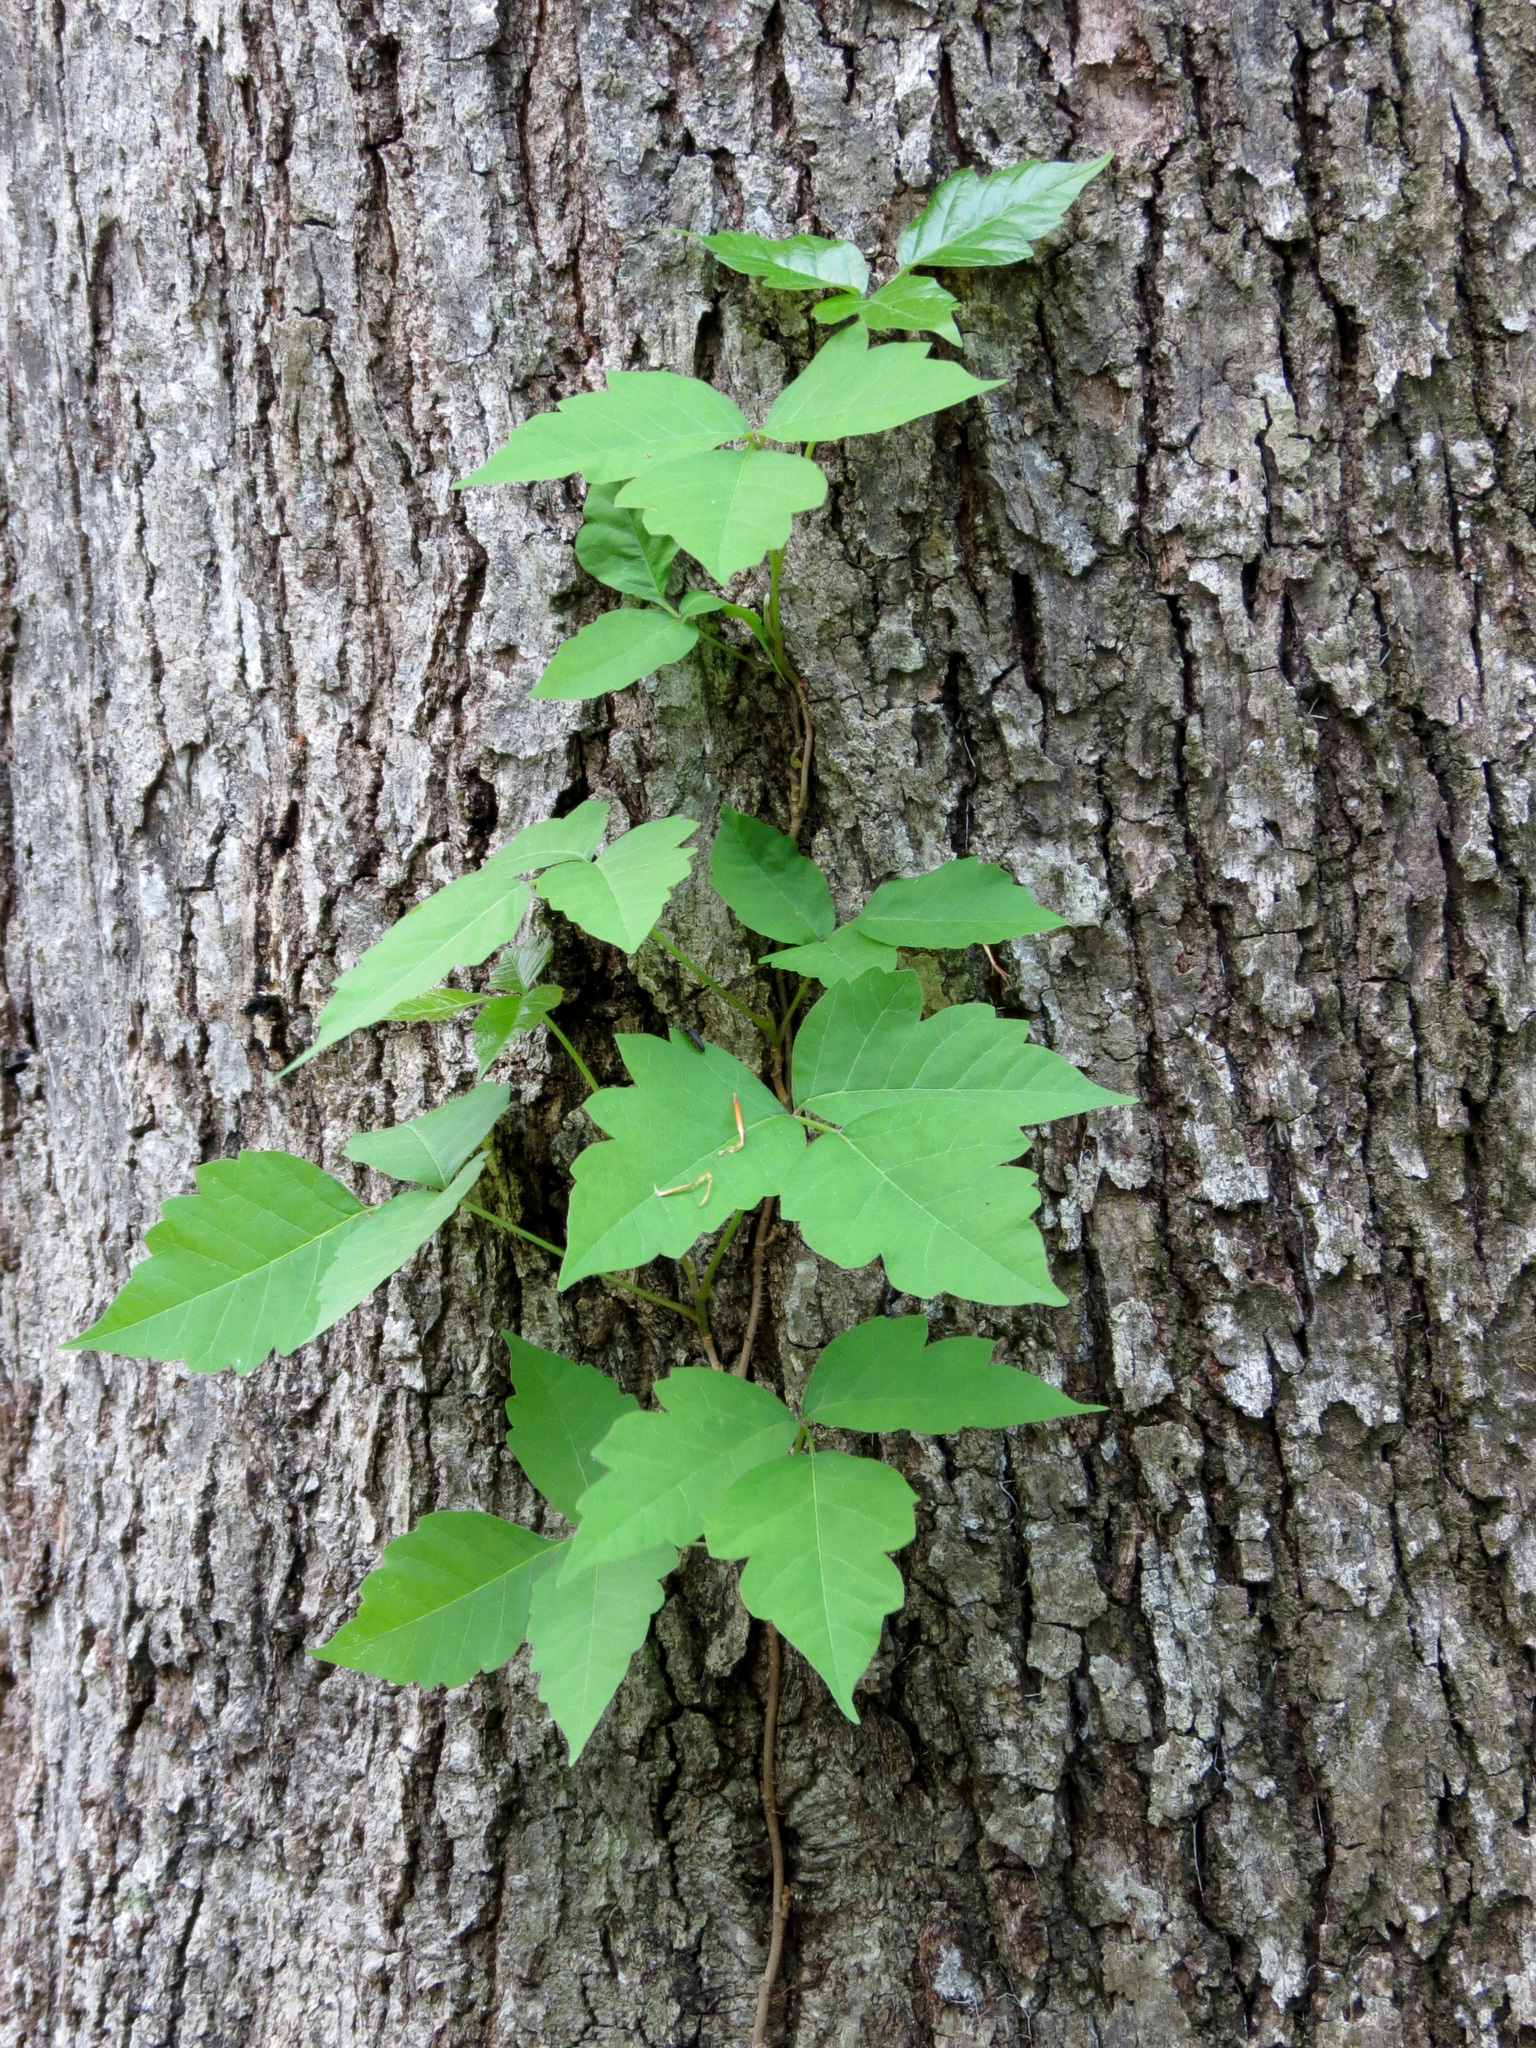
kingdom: Plantae
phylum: Tracheophyta
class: Magnoliopsida
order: Sapindales
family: Anacardiaceae
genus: Toxicodendron
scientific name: Toxicodendron radicans
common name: Poison ivy
